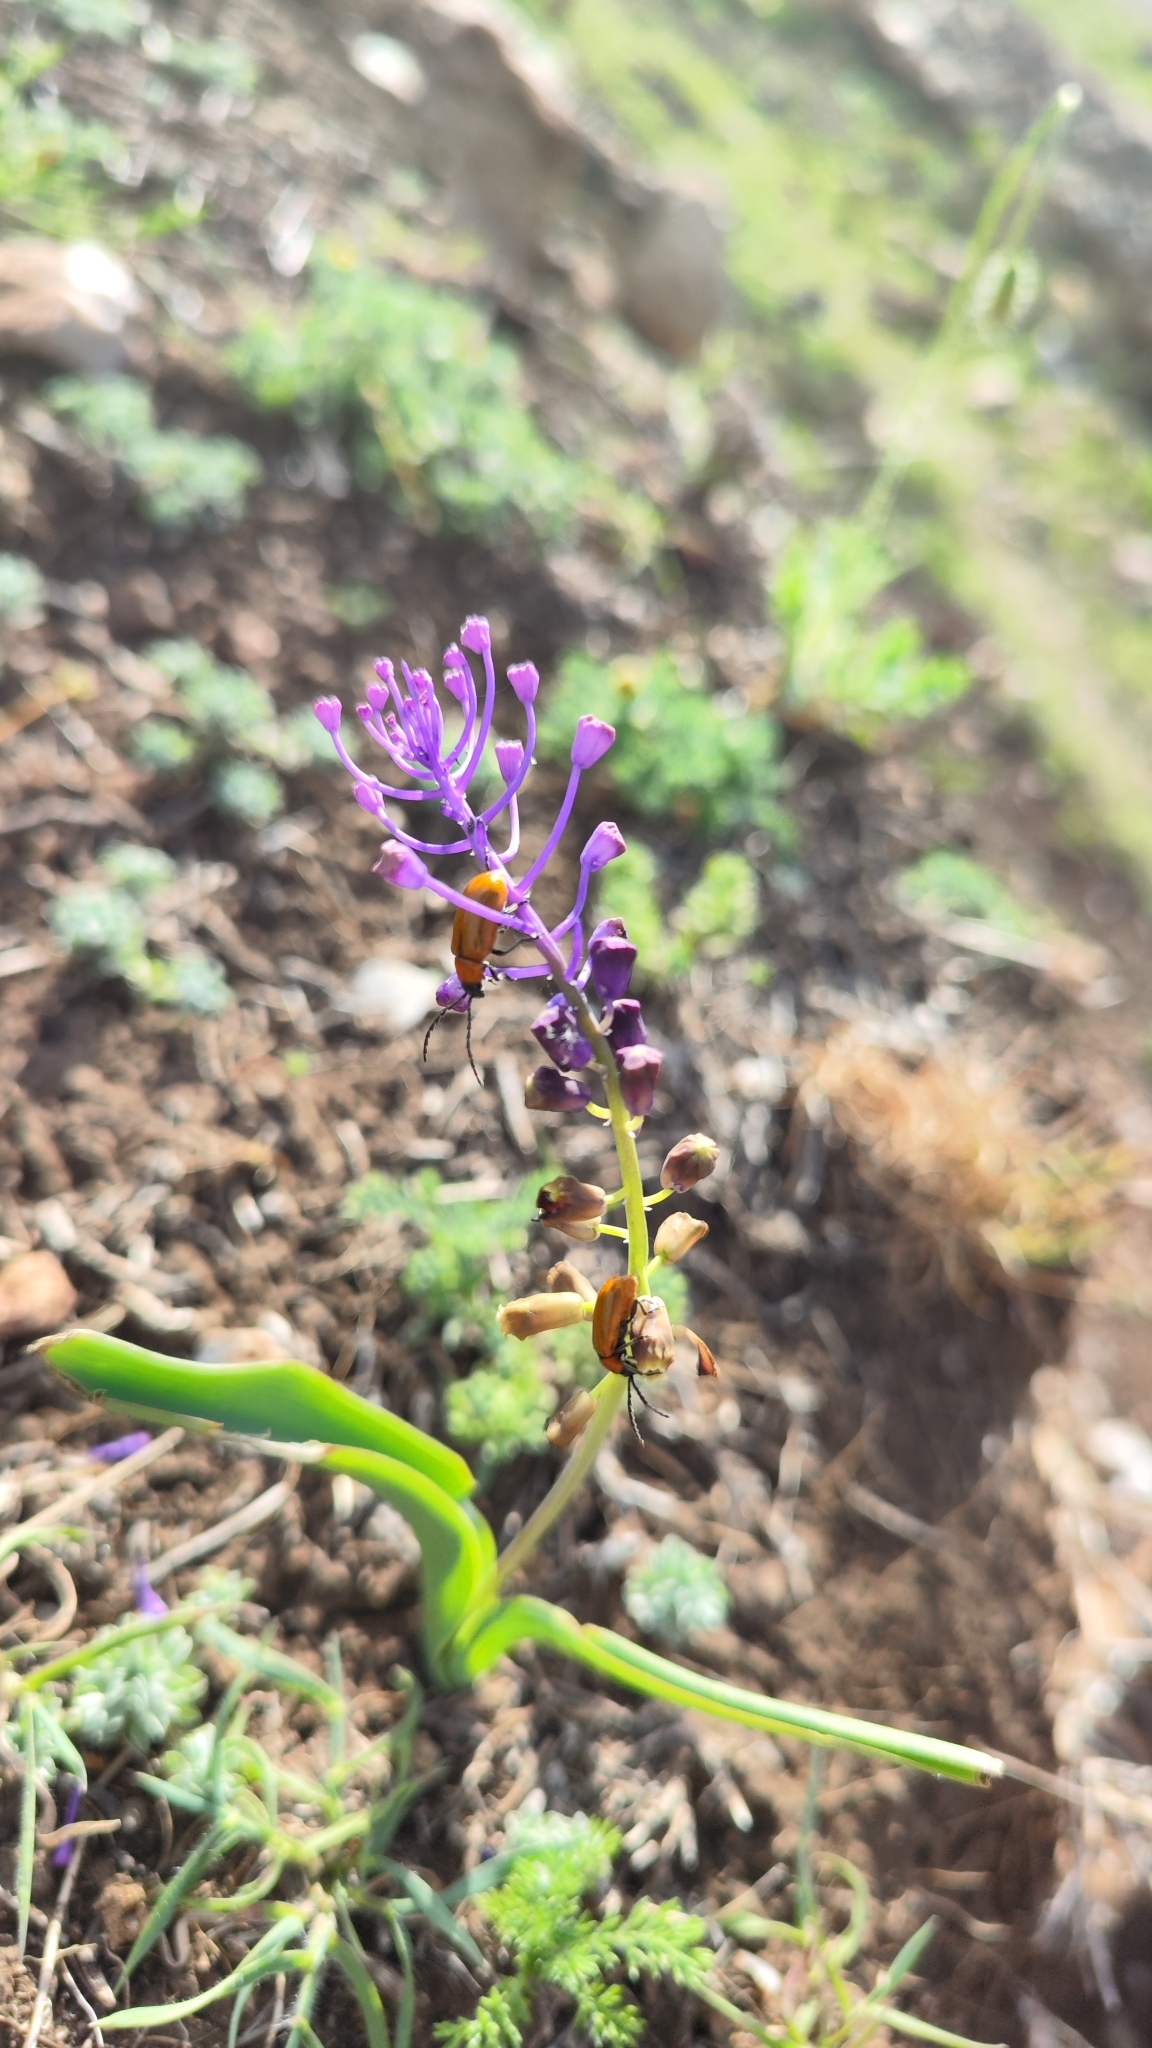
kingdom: Plantae
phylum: Tracheophyta
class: Liliopsida
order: Asparagales
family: Asparagaceae
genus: Muscari
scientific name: Muscari comosum
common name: Tassel hyacinth
